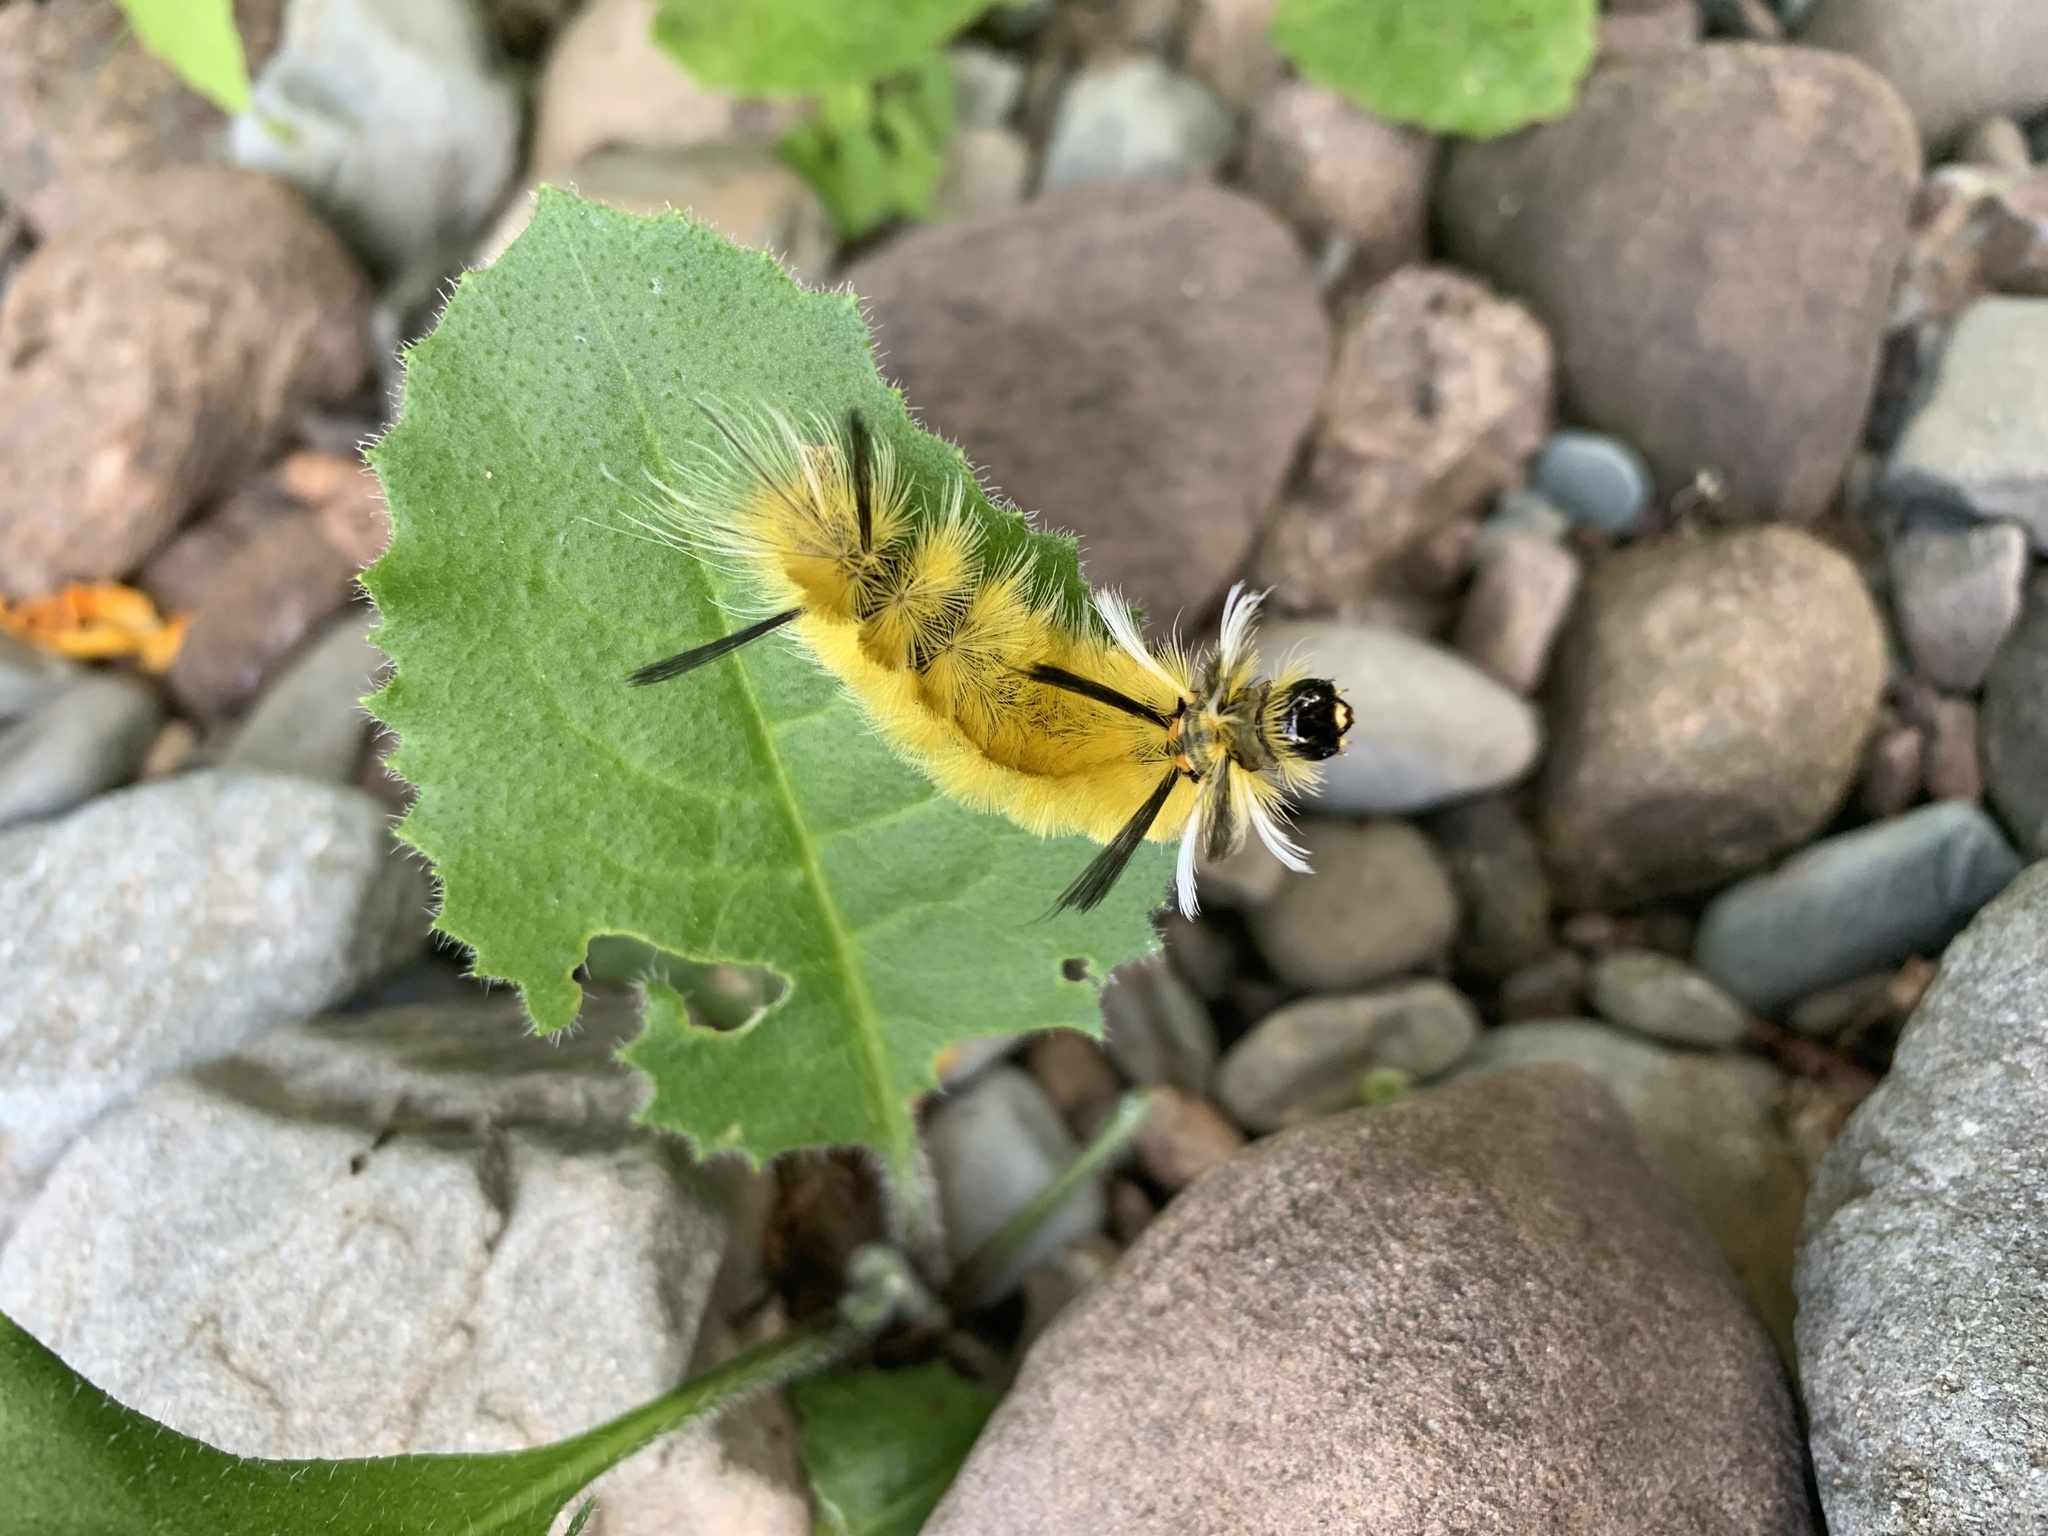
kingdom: Animalia
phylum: Arthropoda
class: Insecta
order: Lepidoptera
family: Erebidae
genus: Halysidota
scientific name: Halysidota tessellaris
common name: Banded tussock moth
